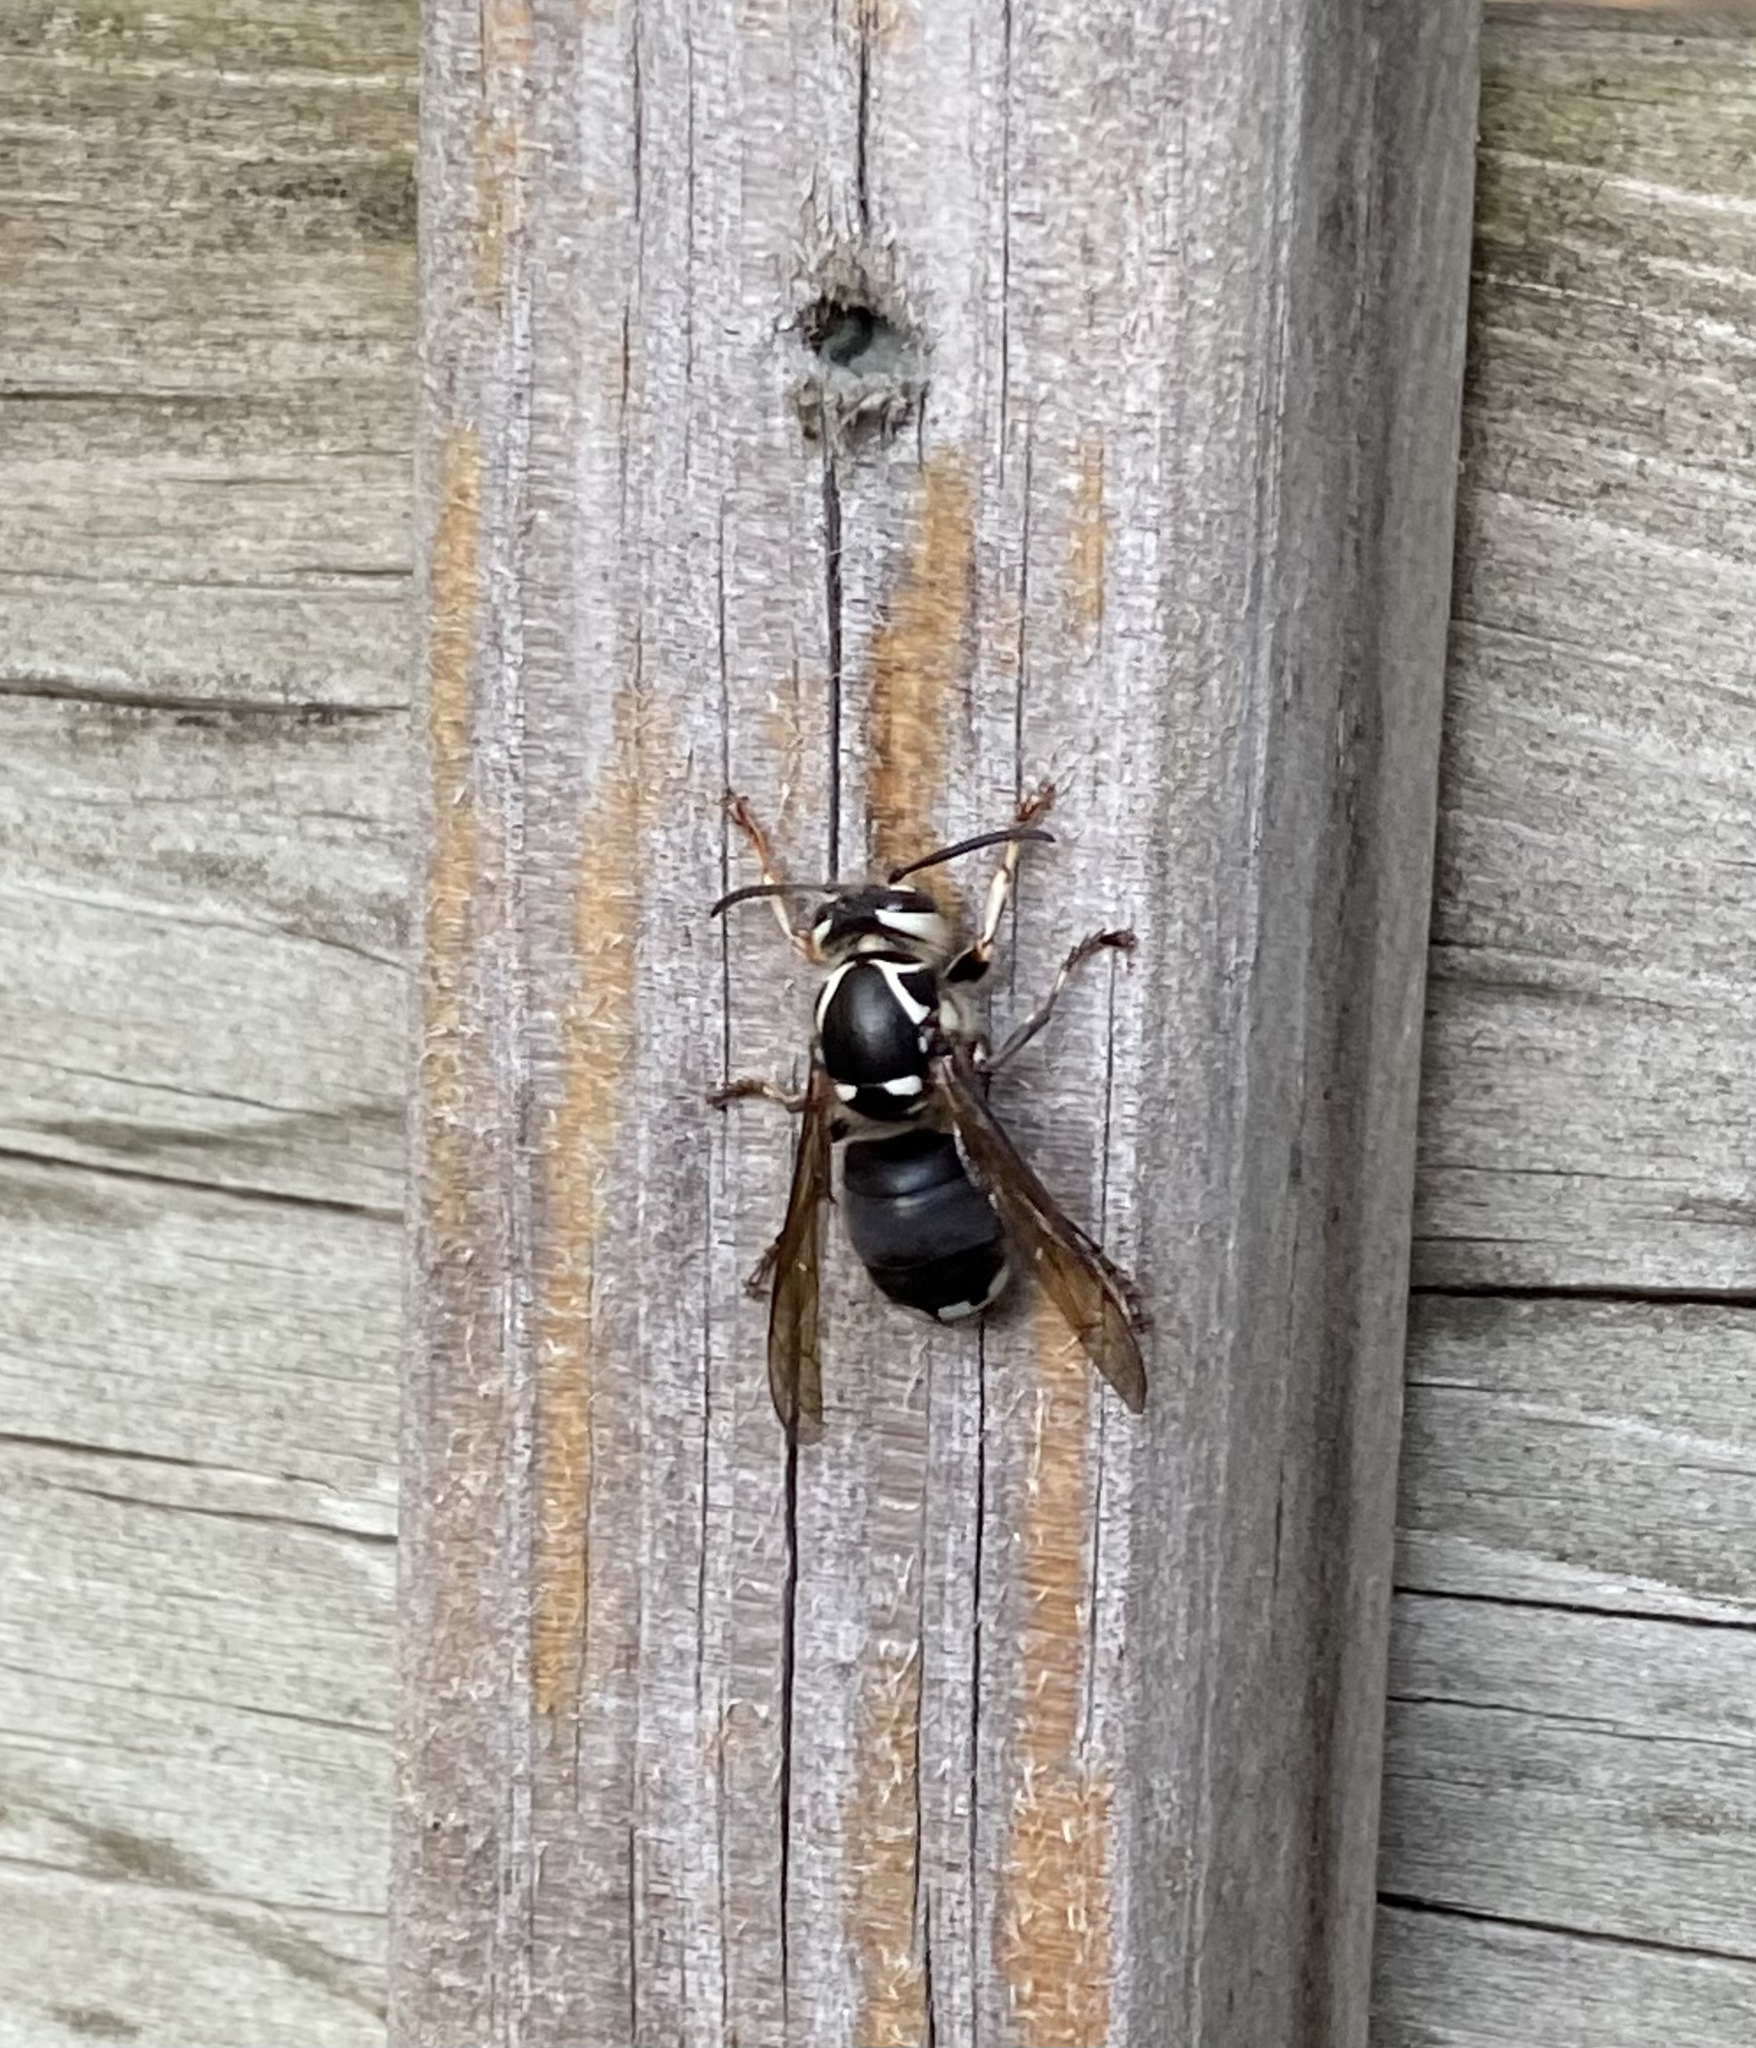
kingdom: Animalia
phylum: Arthropoda
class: Insecta
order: Hymenoptera
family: Vespidae
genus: Dolichovespula
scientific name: Dolichovespula maculata
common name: Bald-faced hornet
